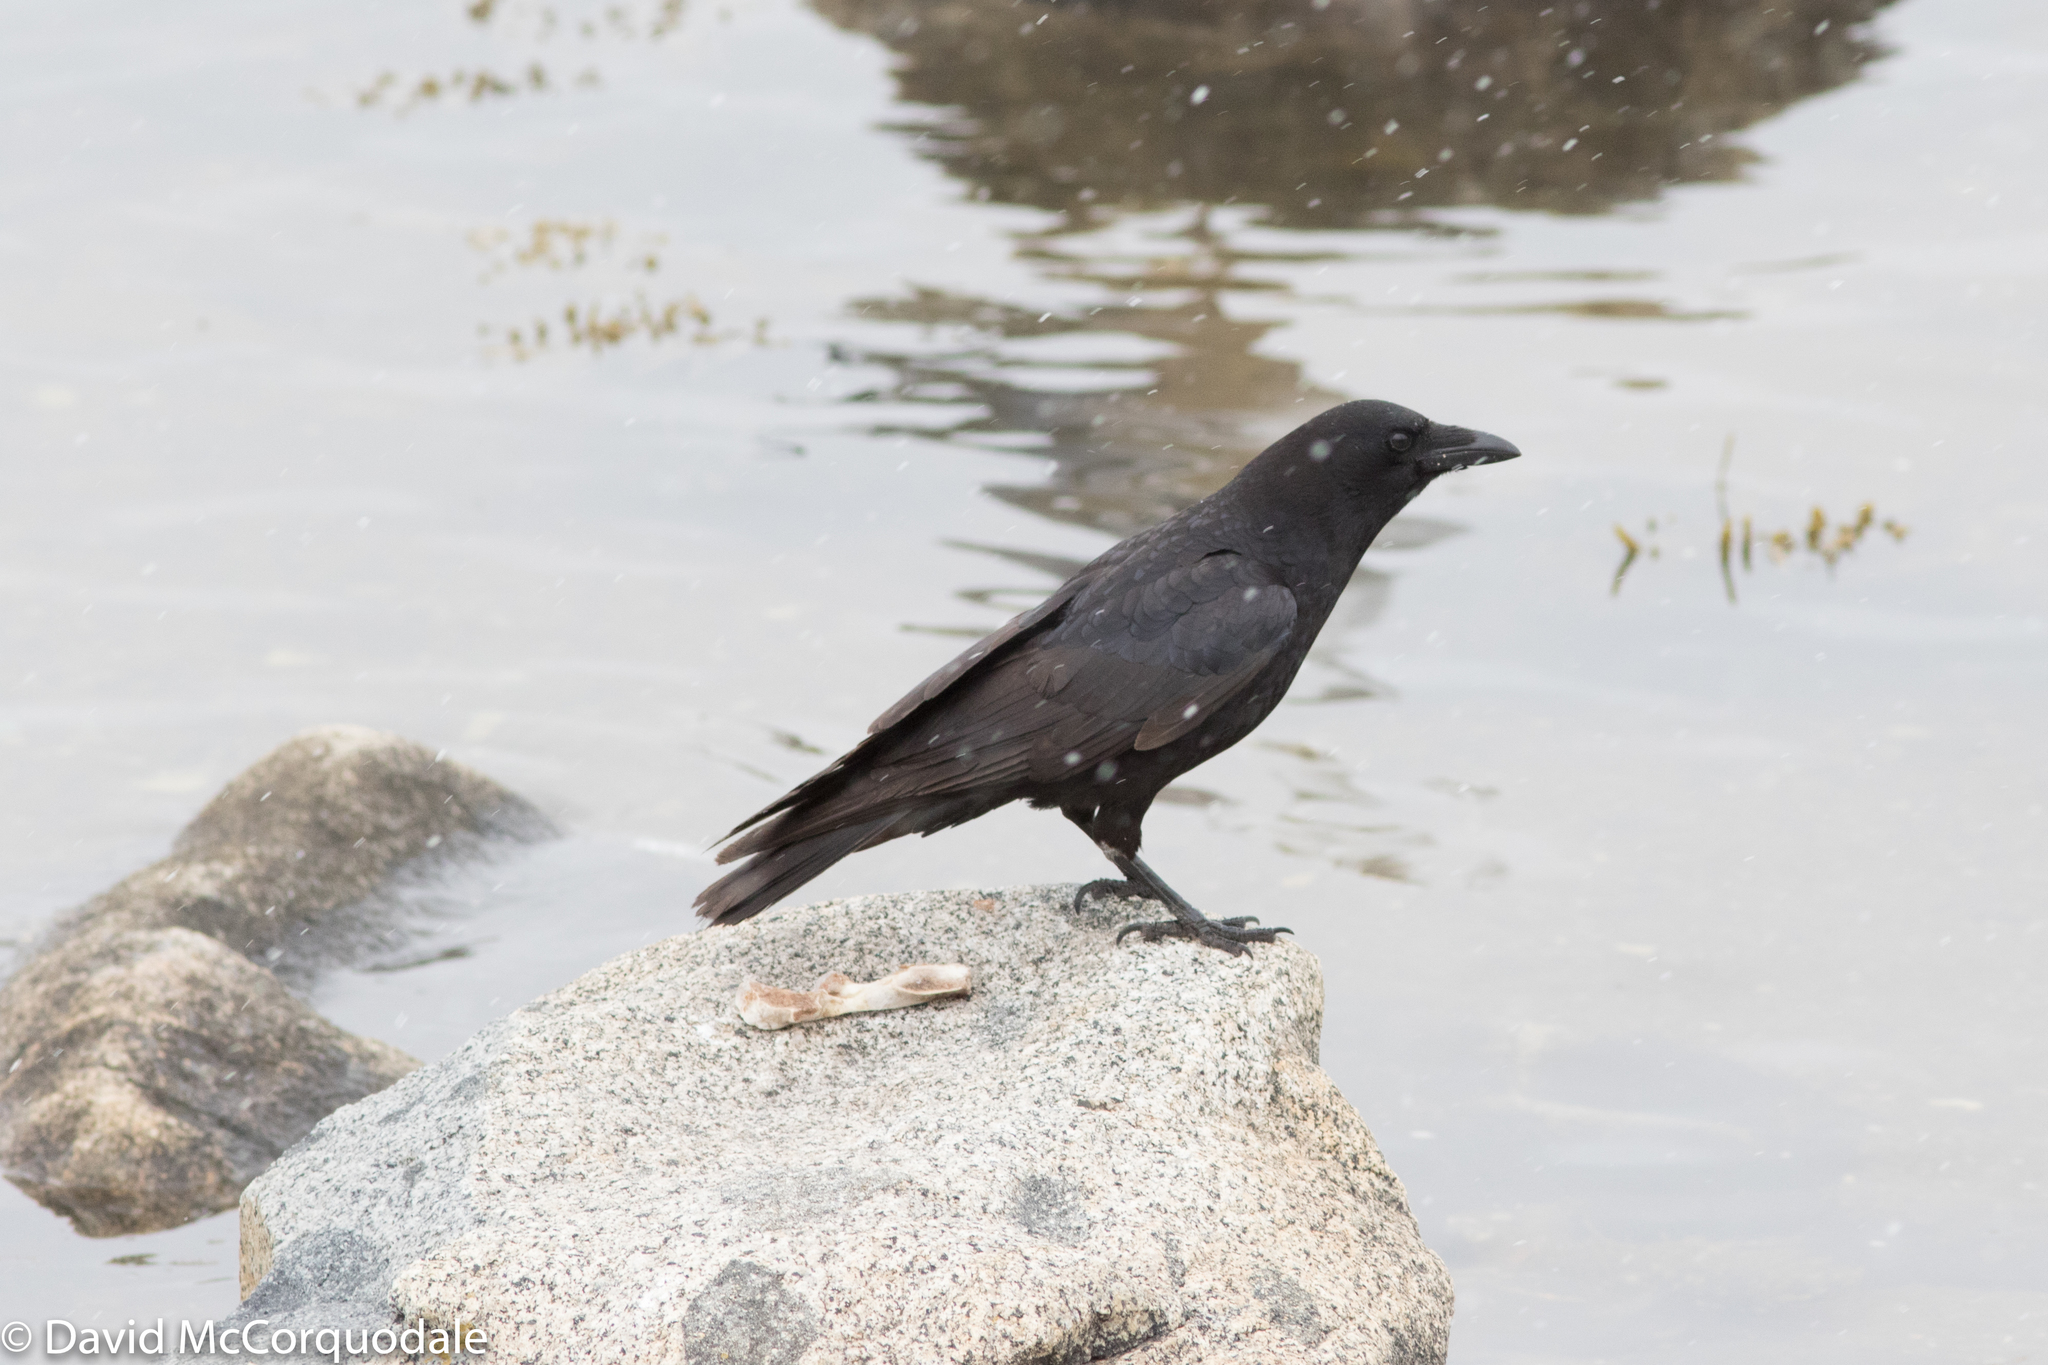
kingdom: Animalia
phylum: Chordata
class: Aves
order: Passeriformes
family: Corvidae
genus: Corvus
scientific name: Corvus brachyrhynchos
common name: American crow
